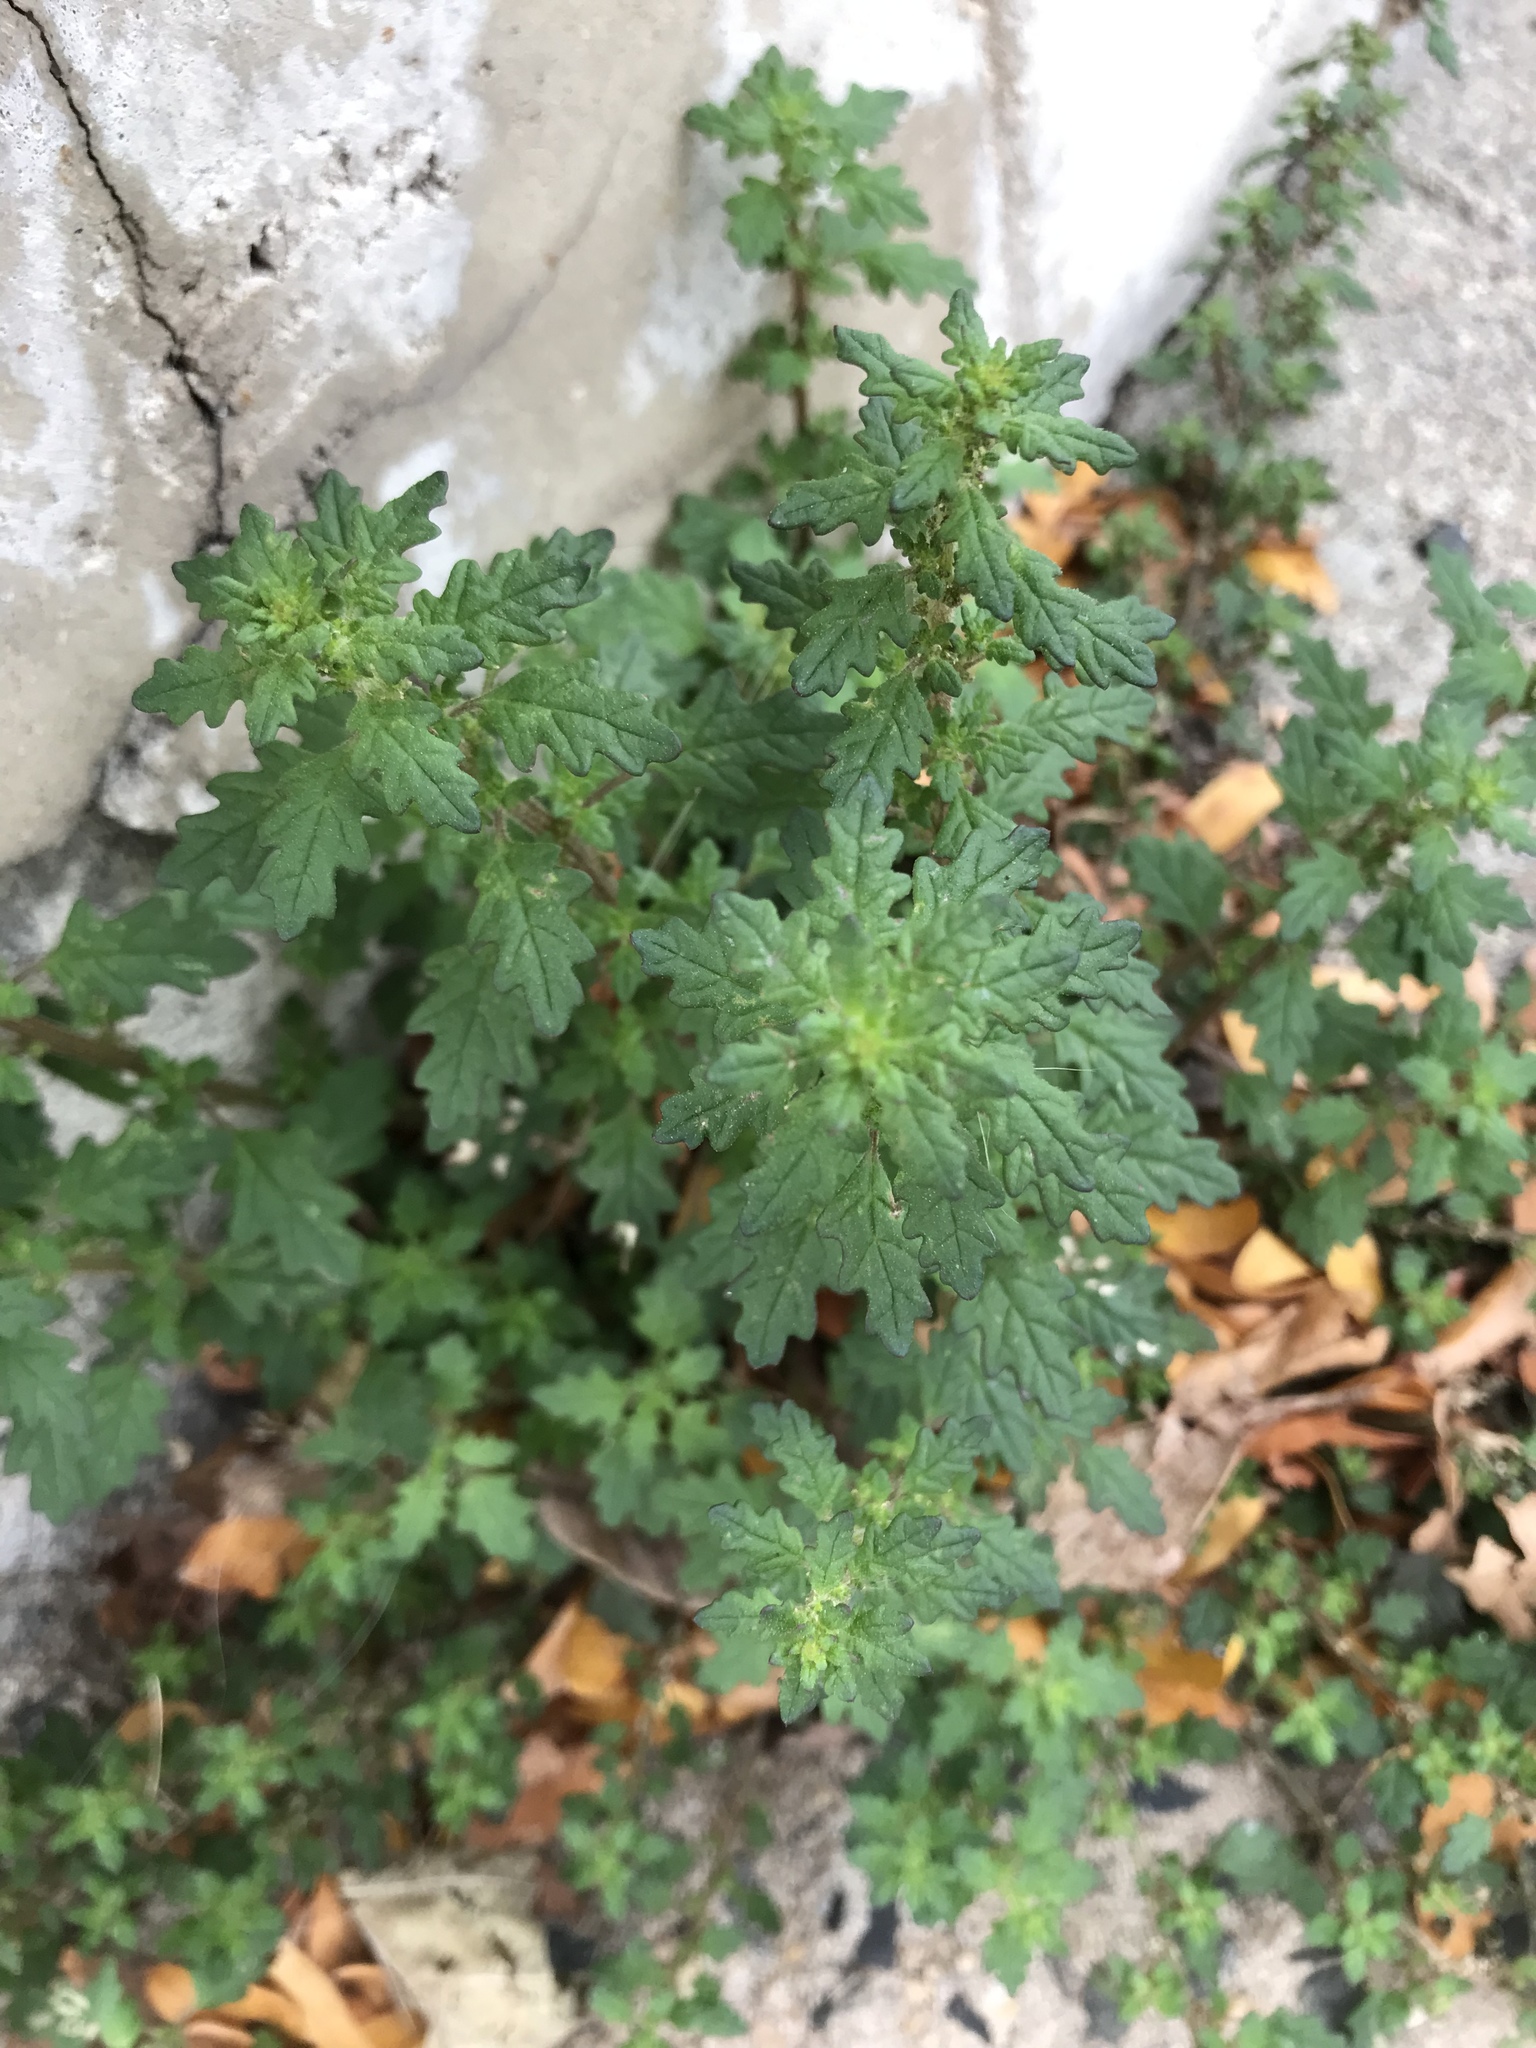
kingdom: Plantae
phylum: Tracheophyta
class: Magnoliopsida
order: Caryophyllales
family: Amaranthaceae
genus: Dysphania
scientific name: Dysphania pumilio
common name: Clammy goosefoot
